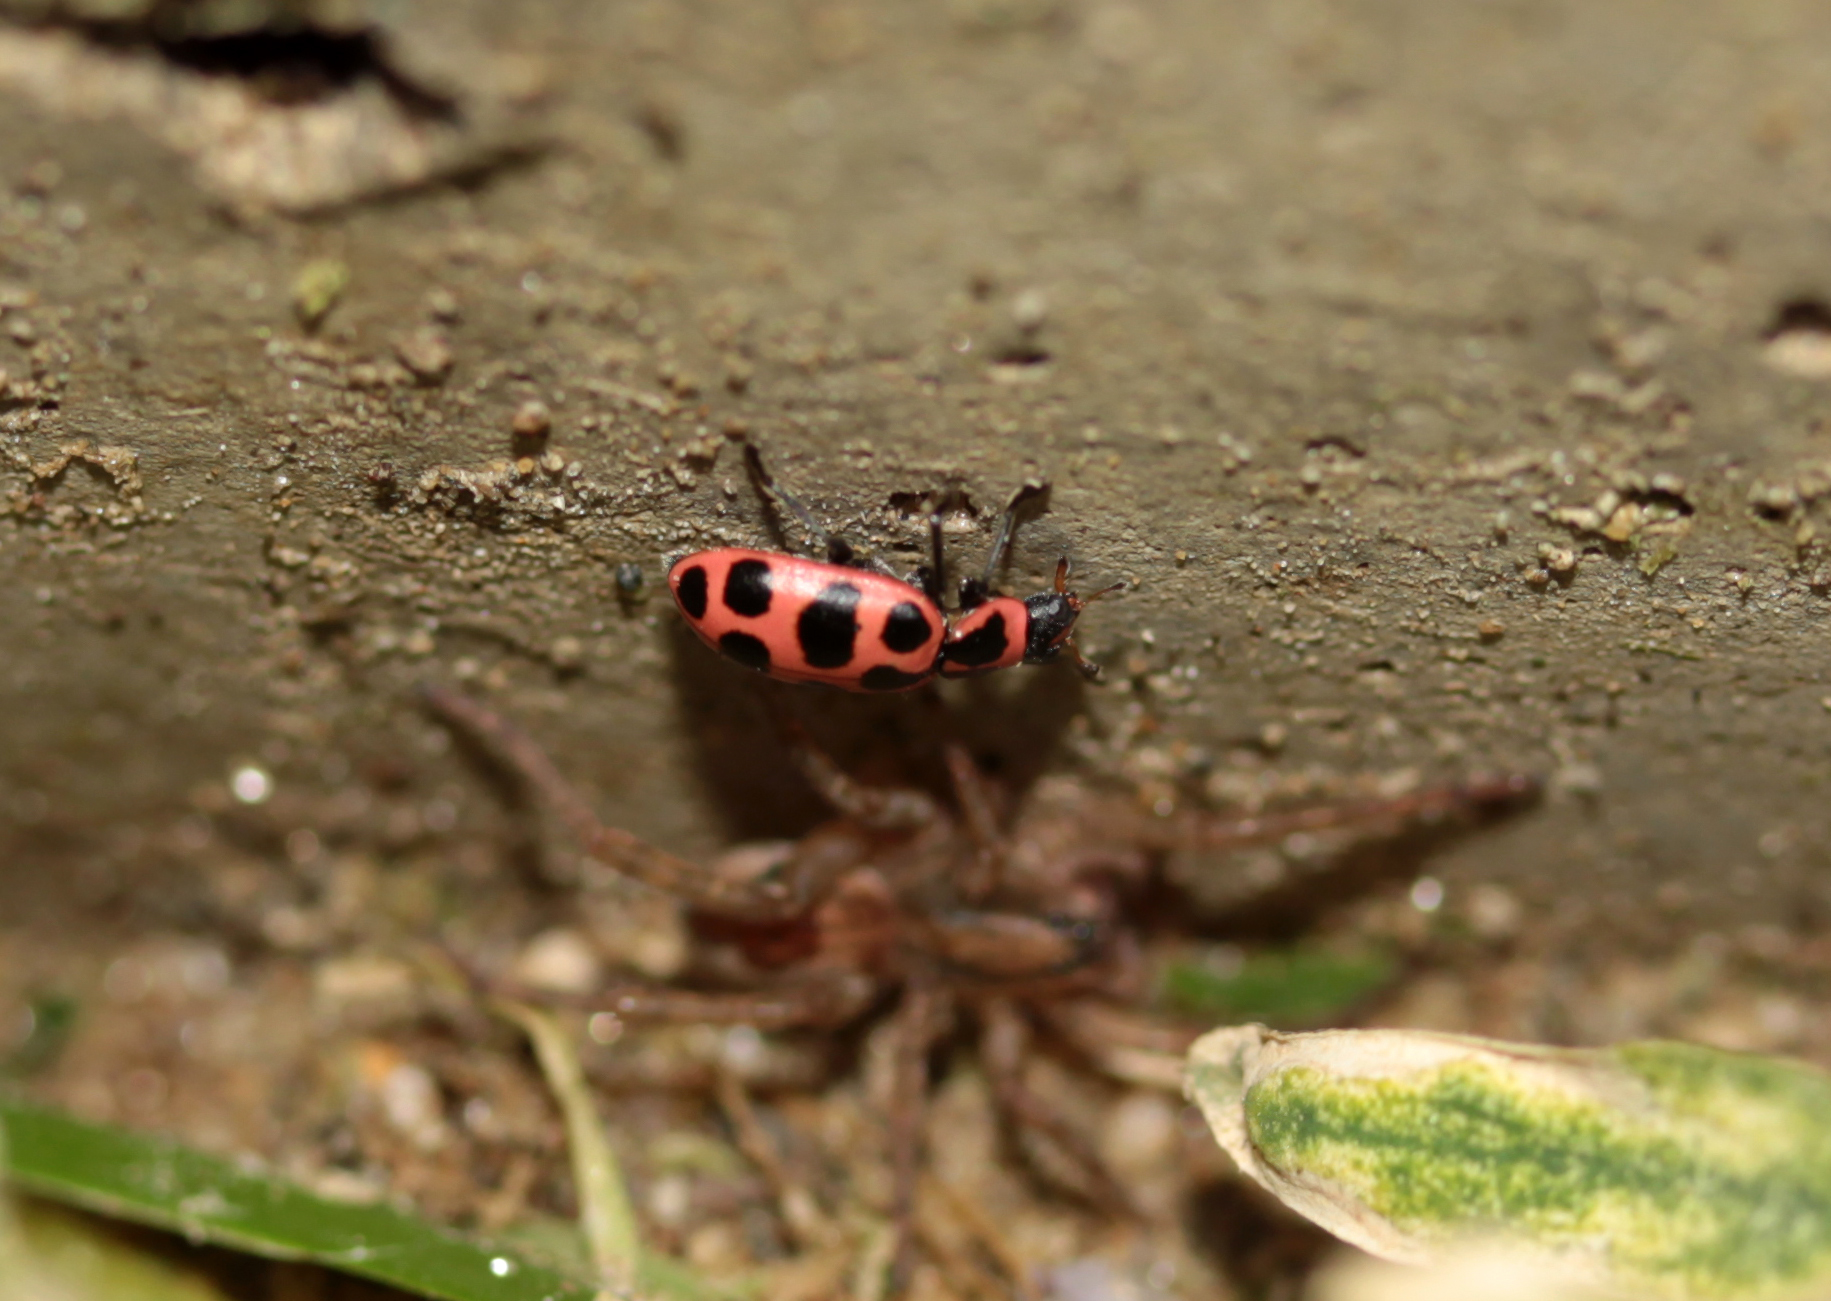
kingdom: Animalia
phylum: Arthropoda
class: Insecta
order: Coleoptera
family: Coccinellidae
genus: Coleomegilla
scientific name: Coleomegilla maculata
